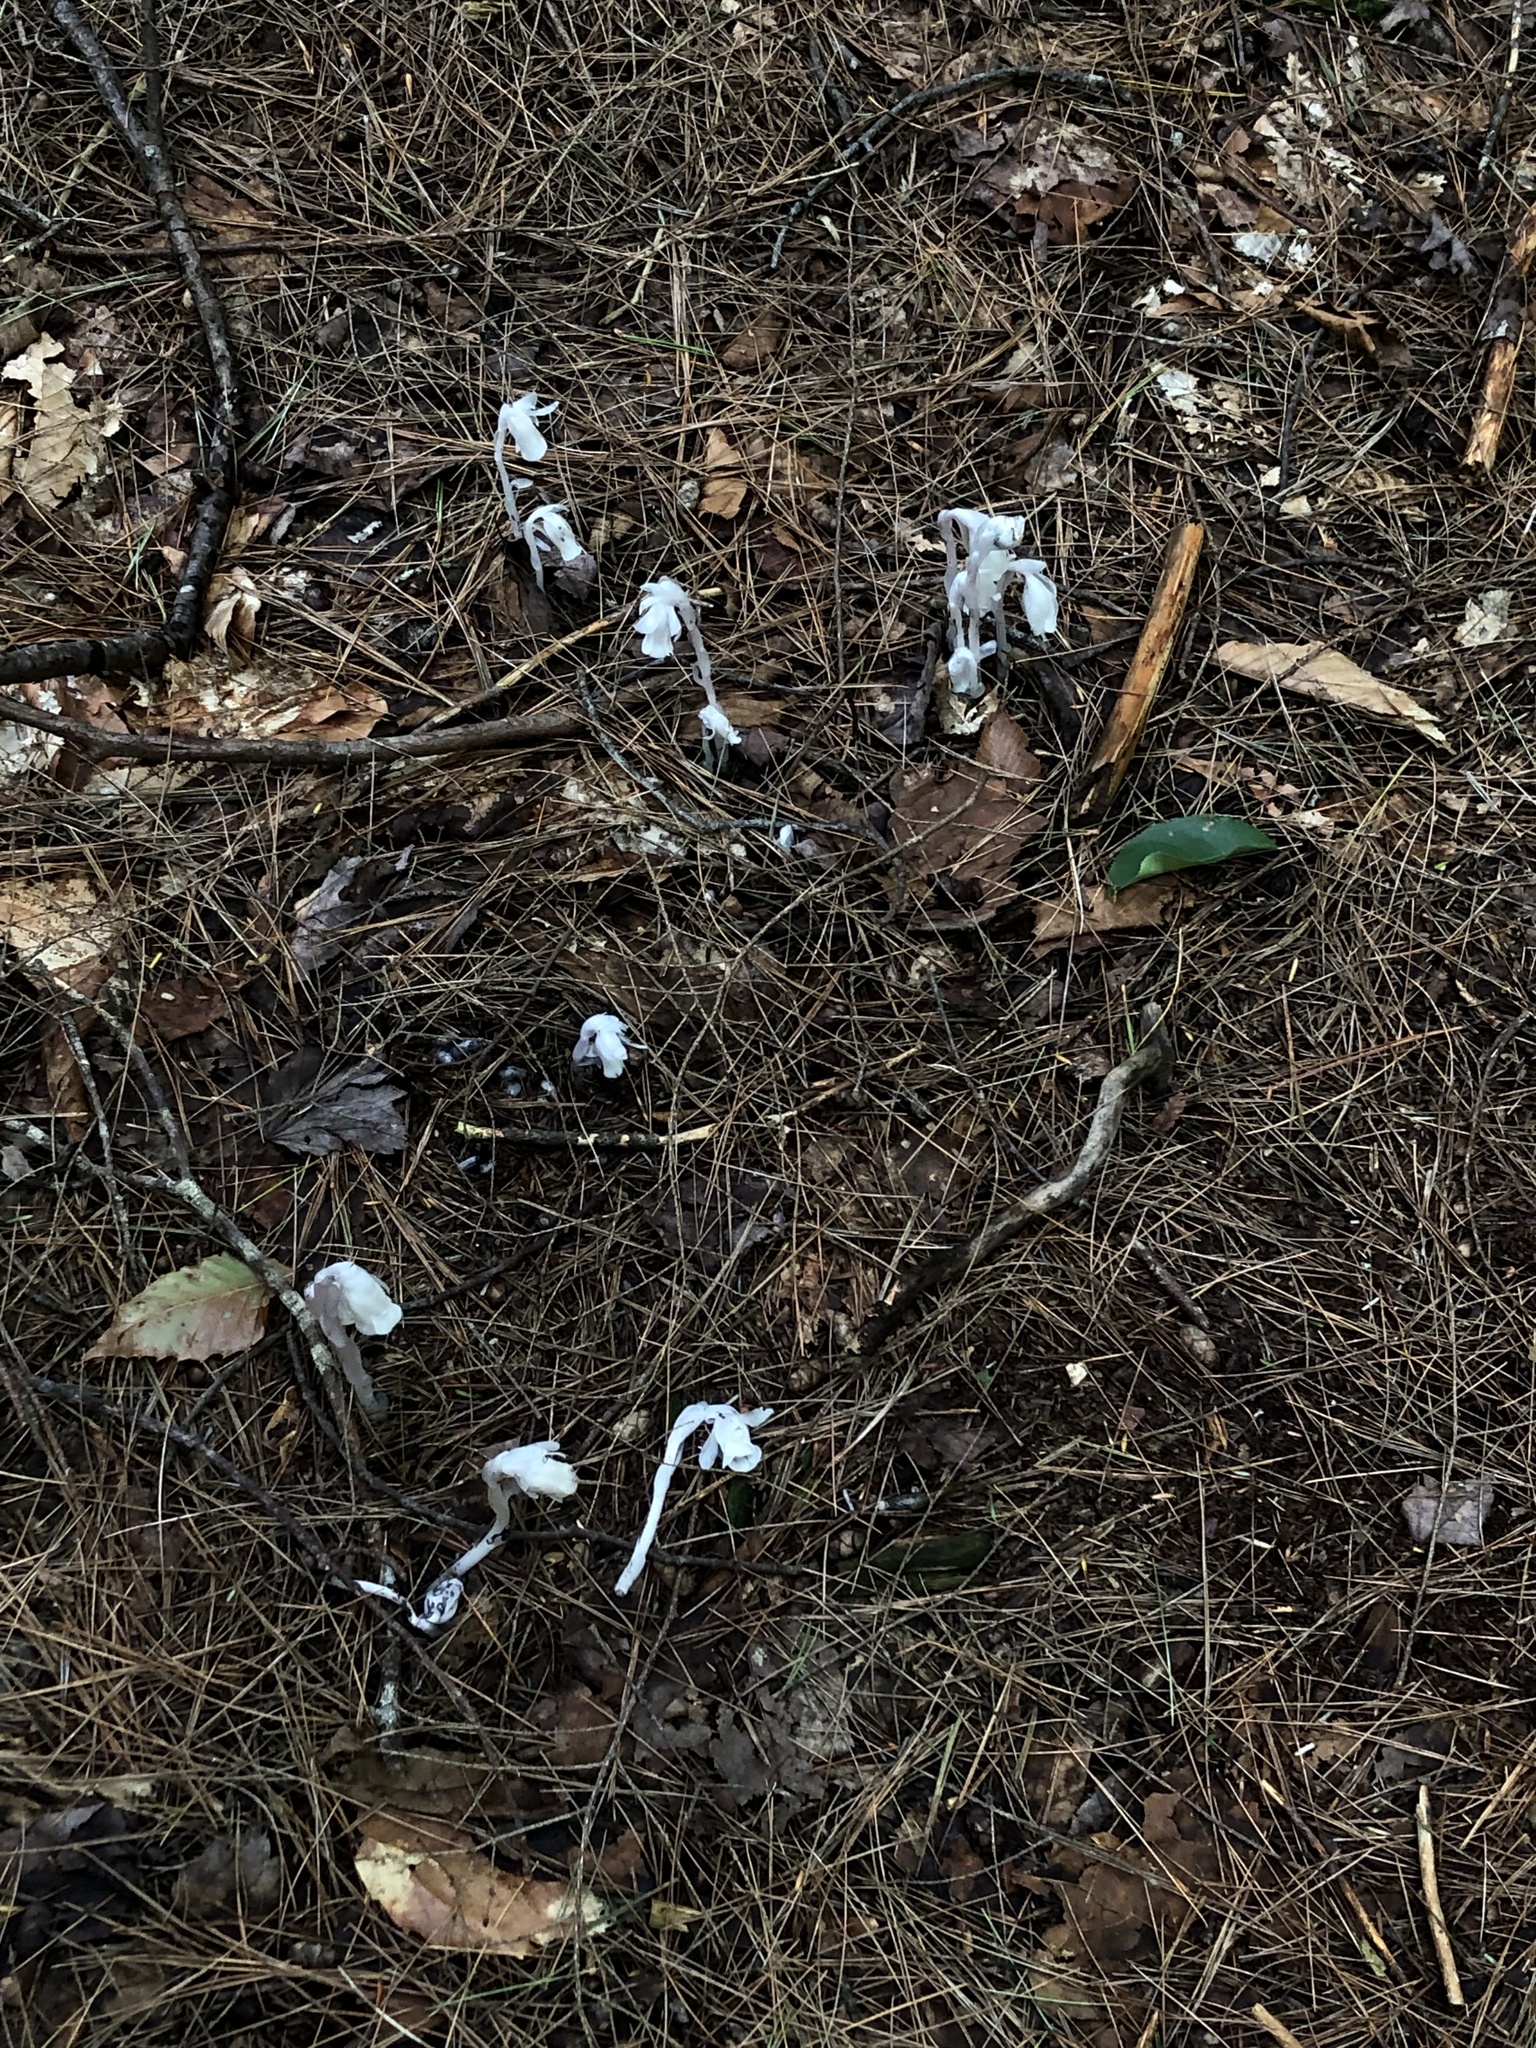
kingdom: Plantae
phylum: Tracheophyta
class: Magnoliopsida
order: Ericales
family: Ericaceae
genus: Monotropa
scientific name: Monotropa uniflora
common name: Convulsion root
